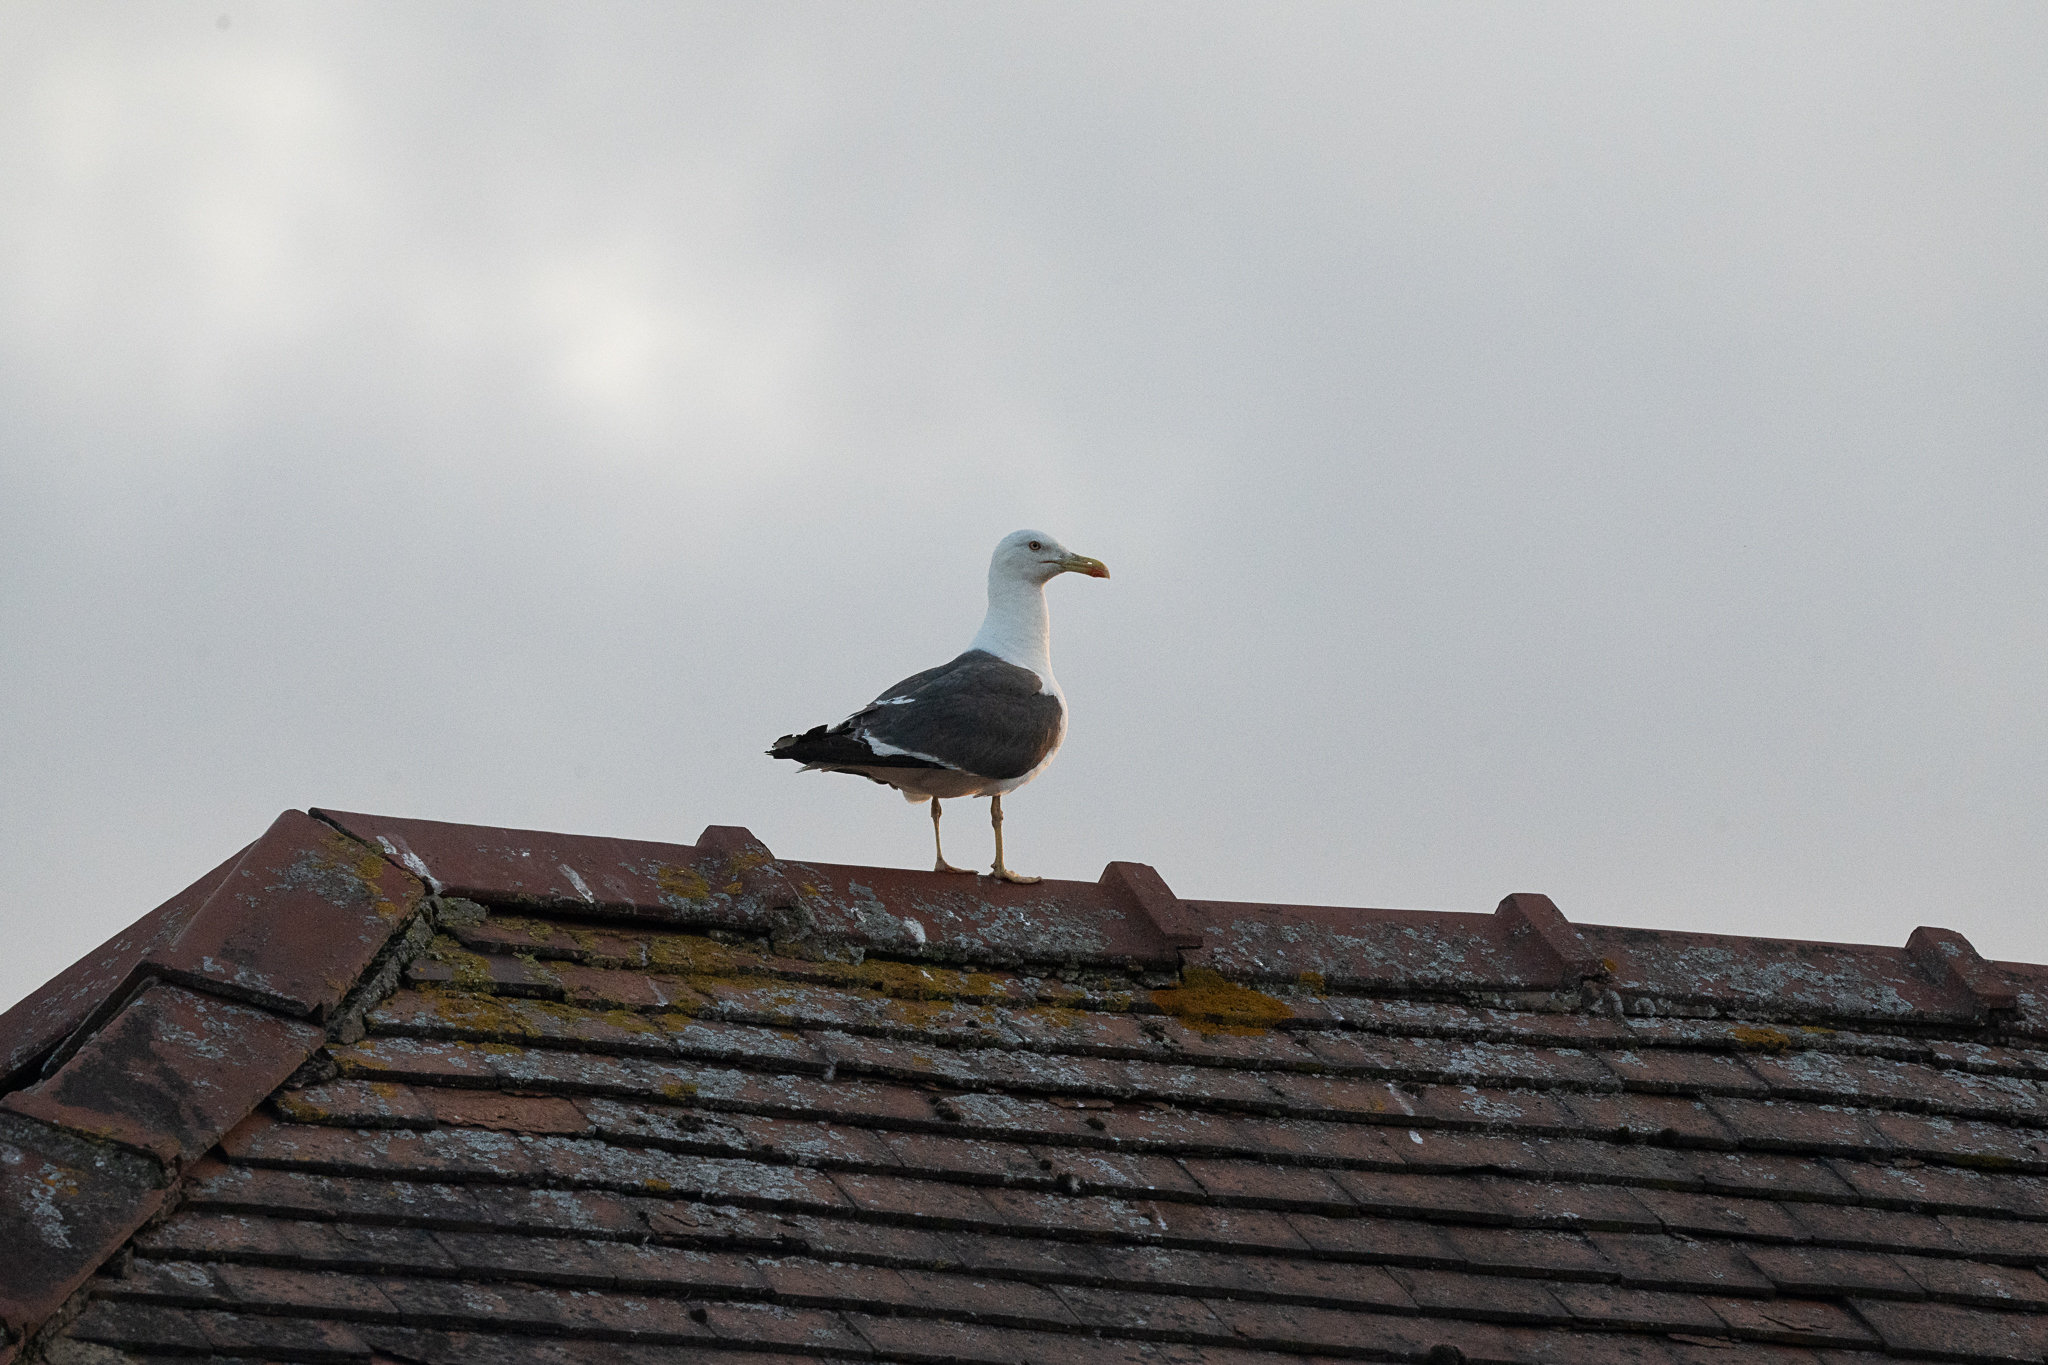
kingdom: Animalia
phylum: Chordata
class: Aves
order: Charadriiformes
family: Laridae
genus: Larus
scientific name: Larus fuscus
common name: Lesser black-backed gull
